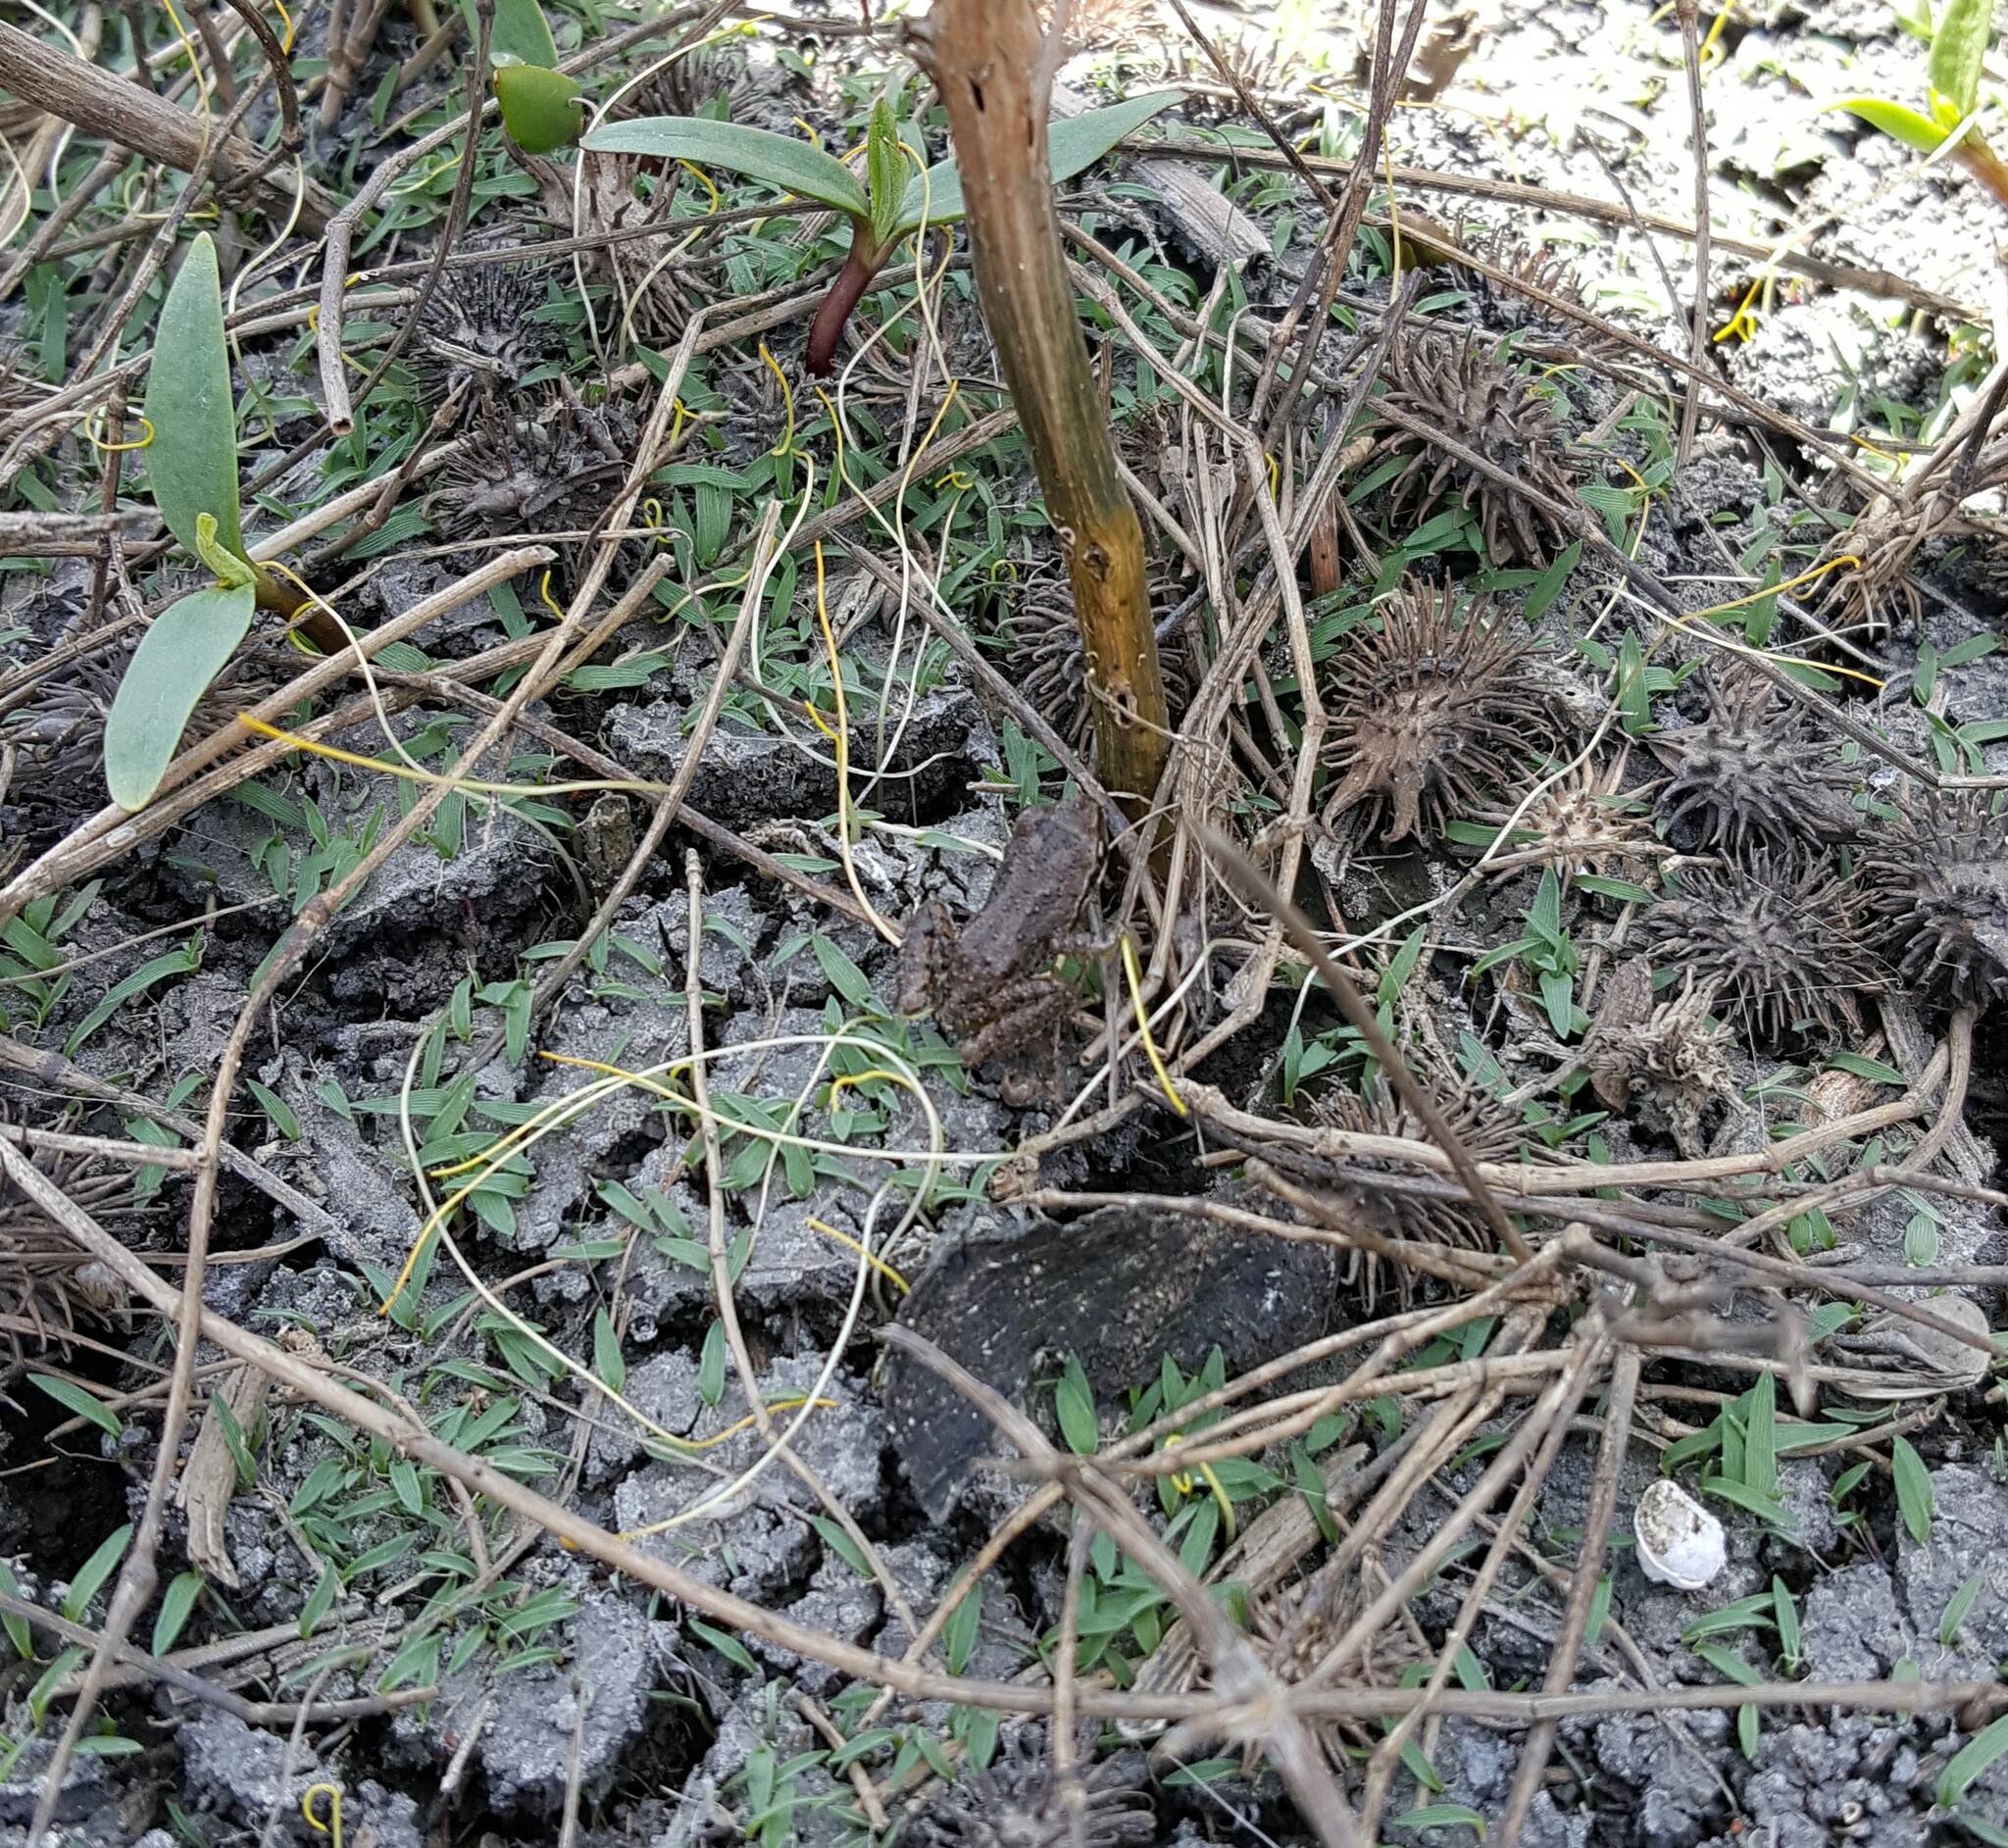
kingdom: Animalia
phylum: Chordata
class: Amphibia
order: Anura
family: Hylidae
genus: Pseudacris
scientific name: Pseudacris regilla
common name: Pacific chorus frog
